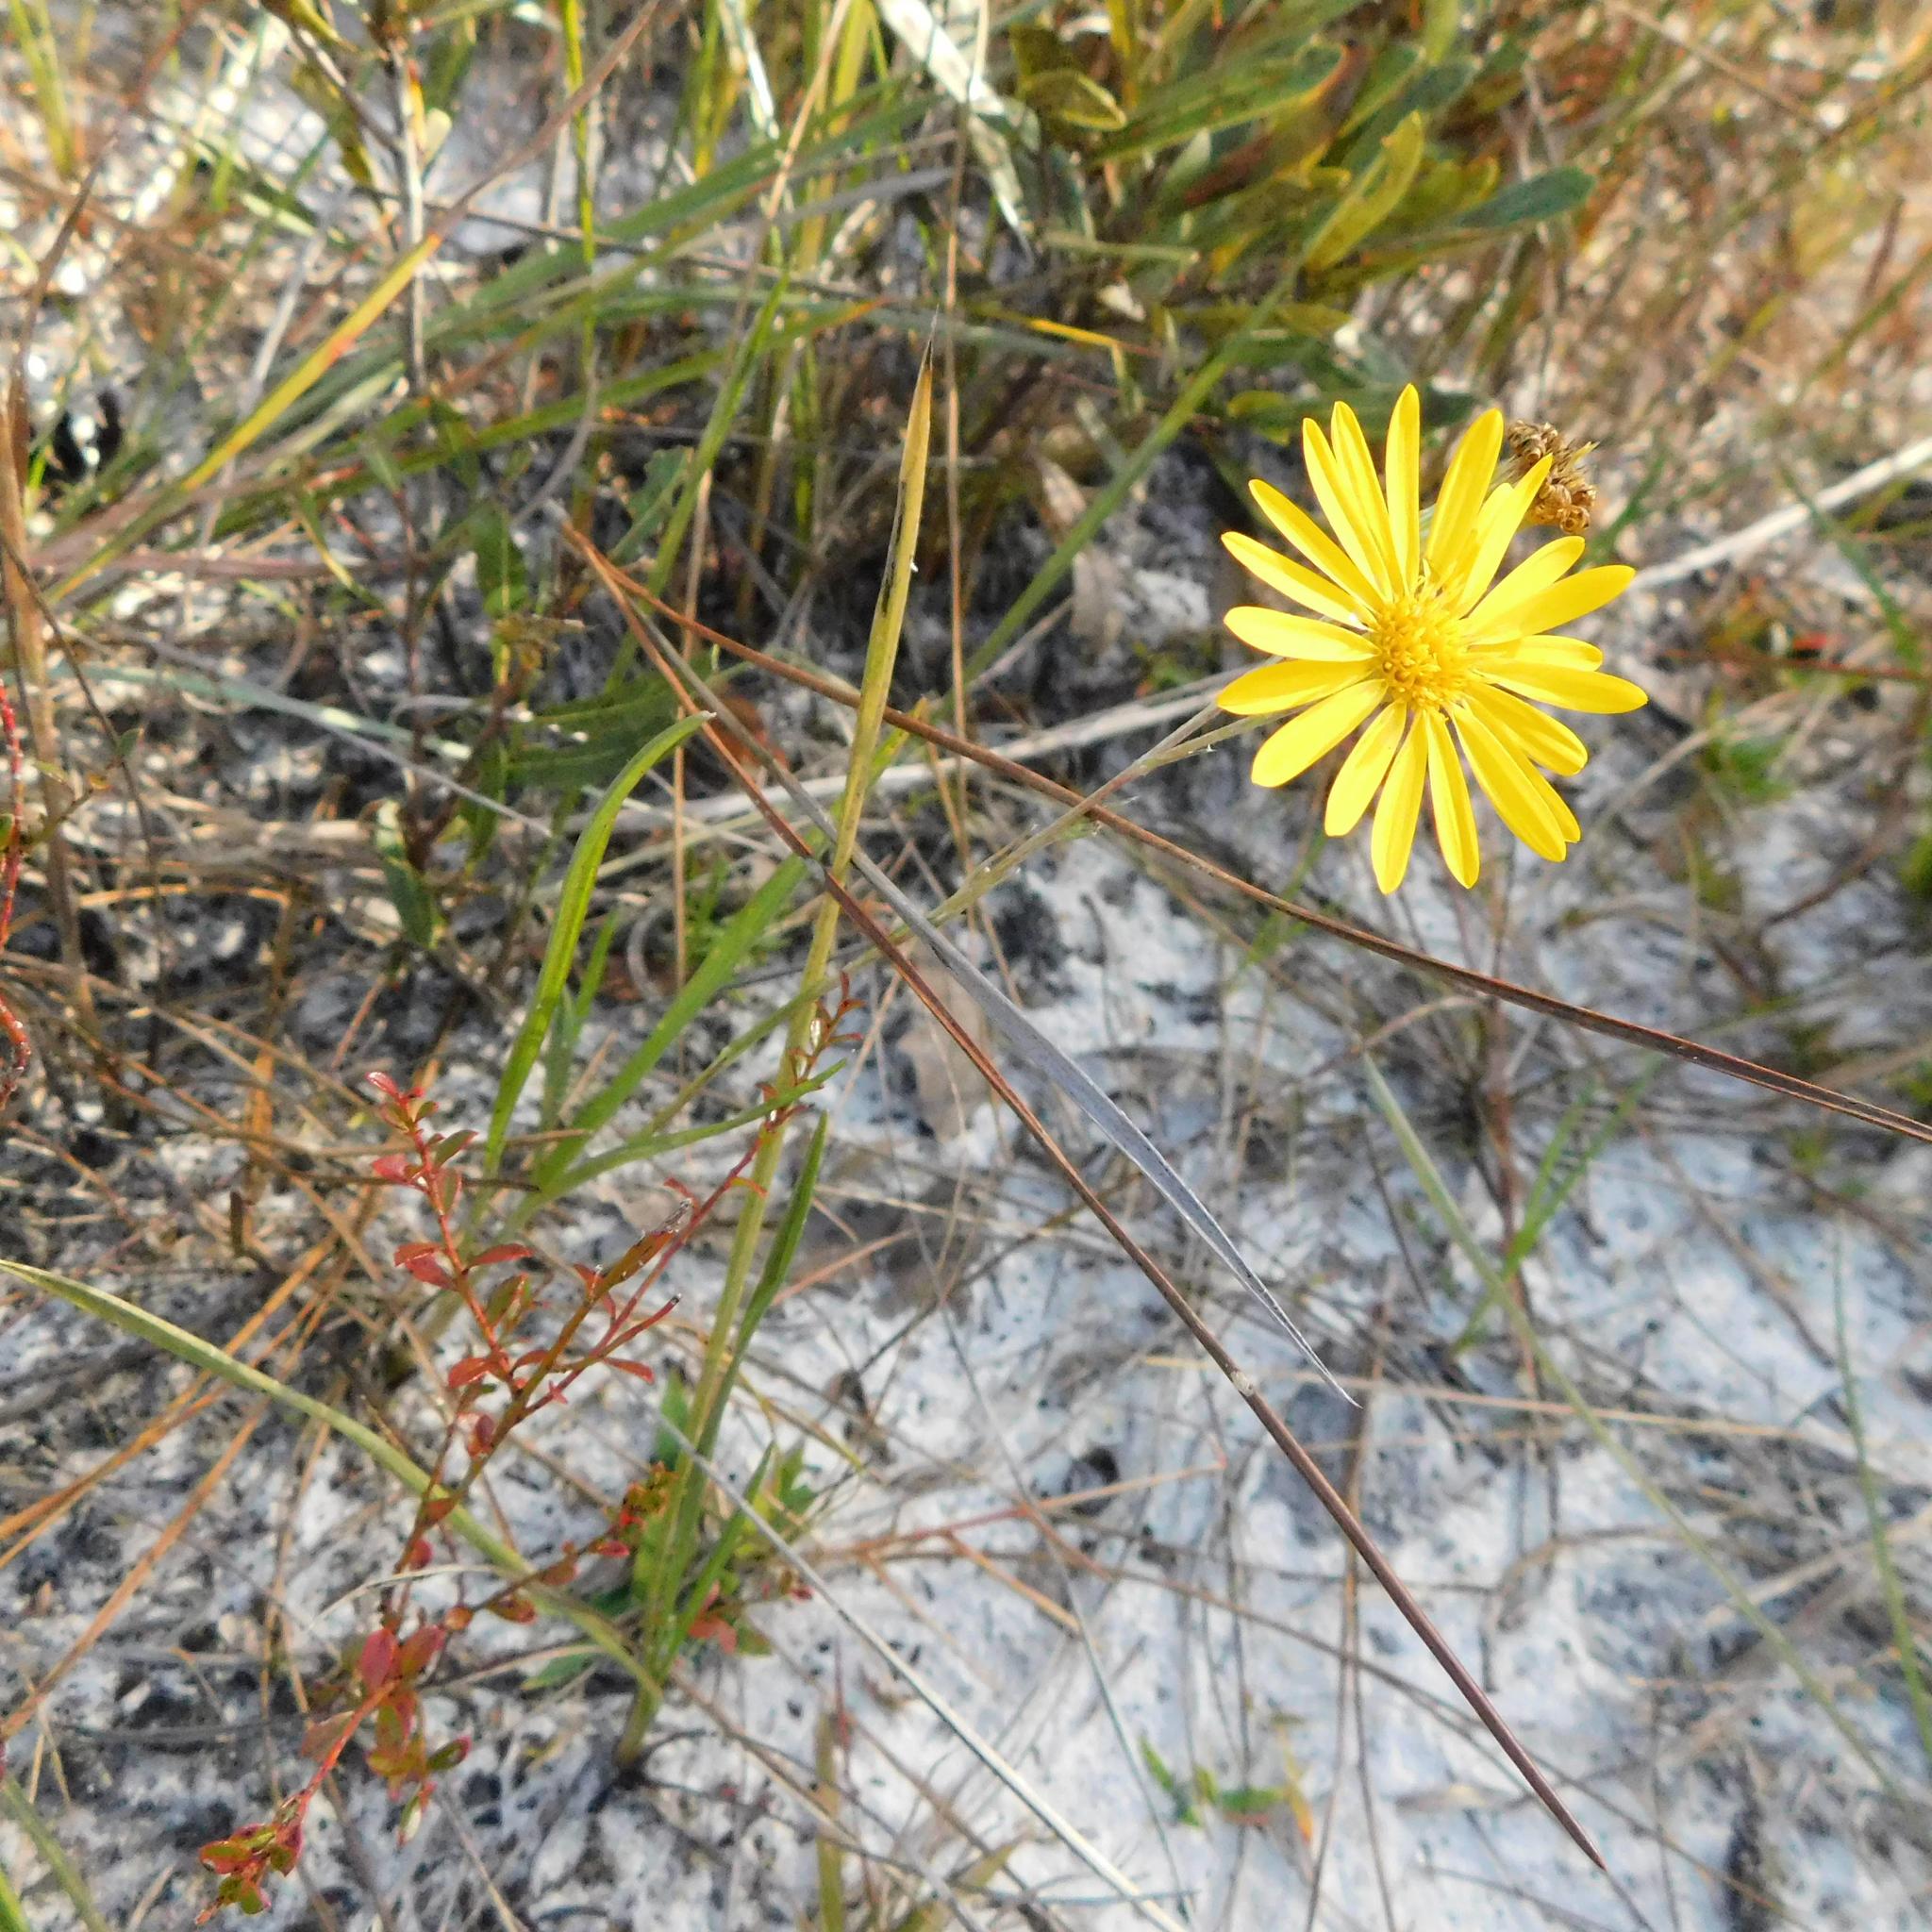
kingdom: Plantae
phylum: Tracheophyta
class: Magnoliopsida
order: Asterales
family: Asteraceae
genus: Pityopsis
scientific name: Pityopsis graminifolia
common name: Grass-leaf golden-aster
